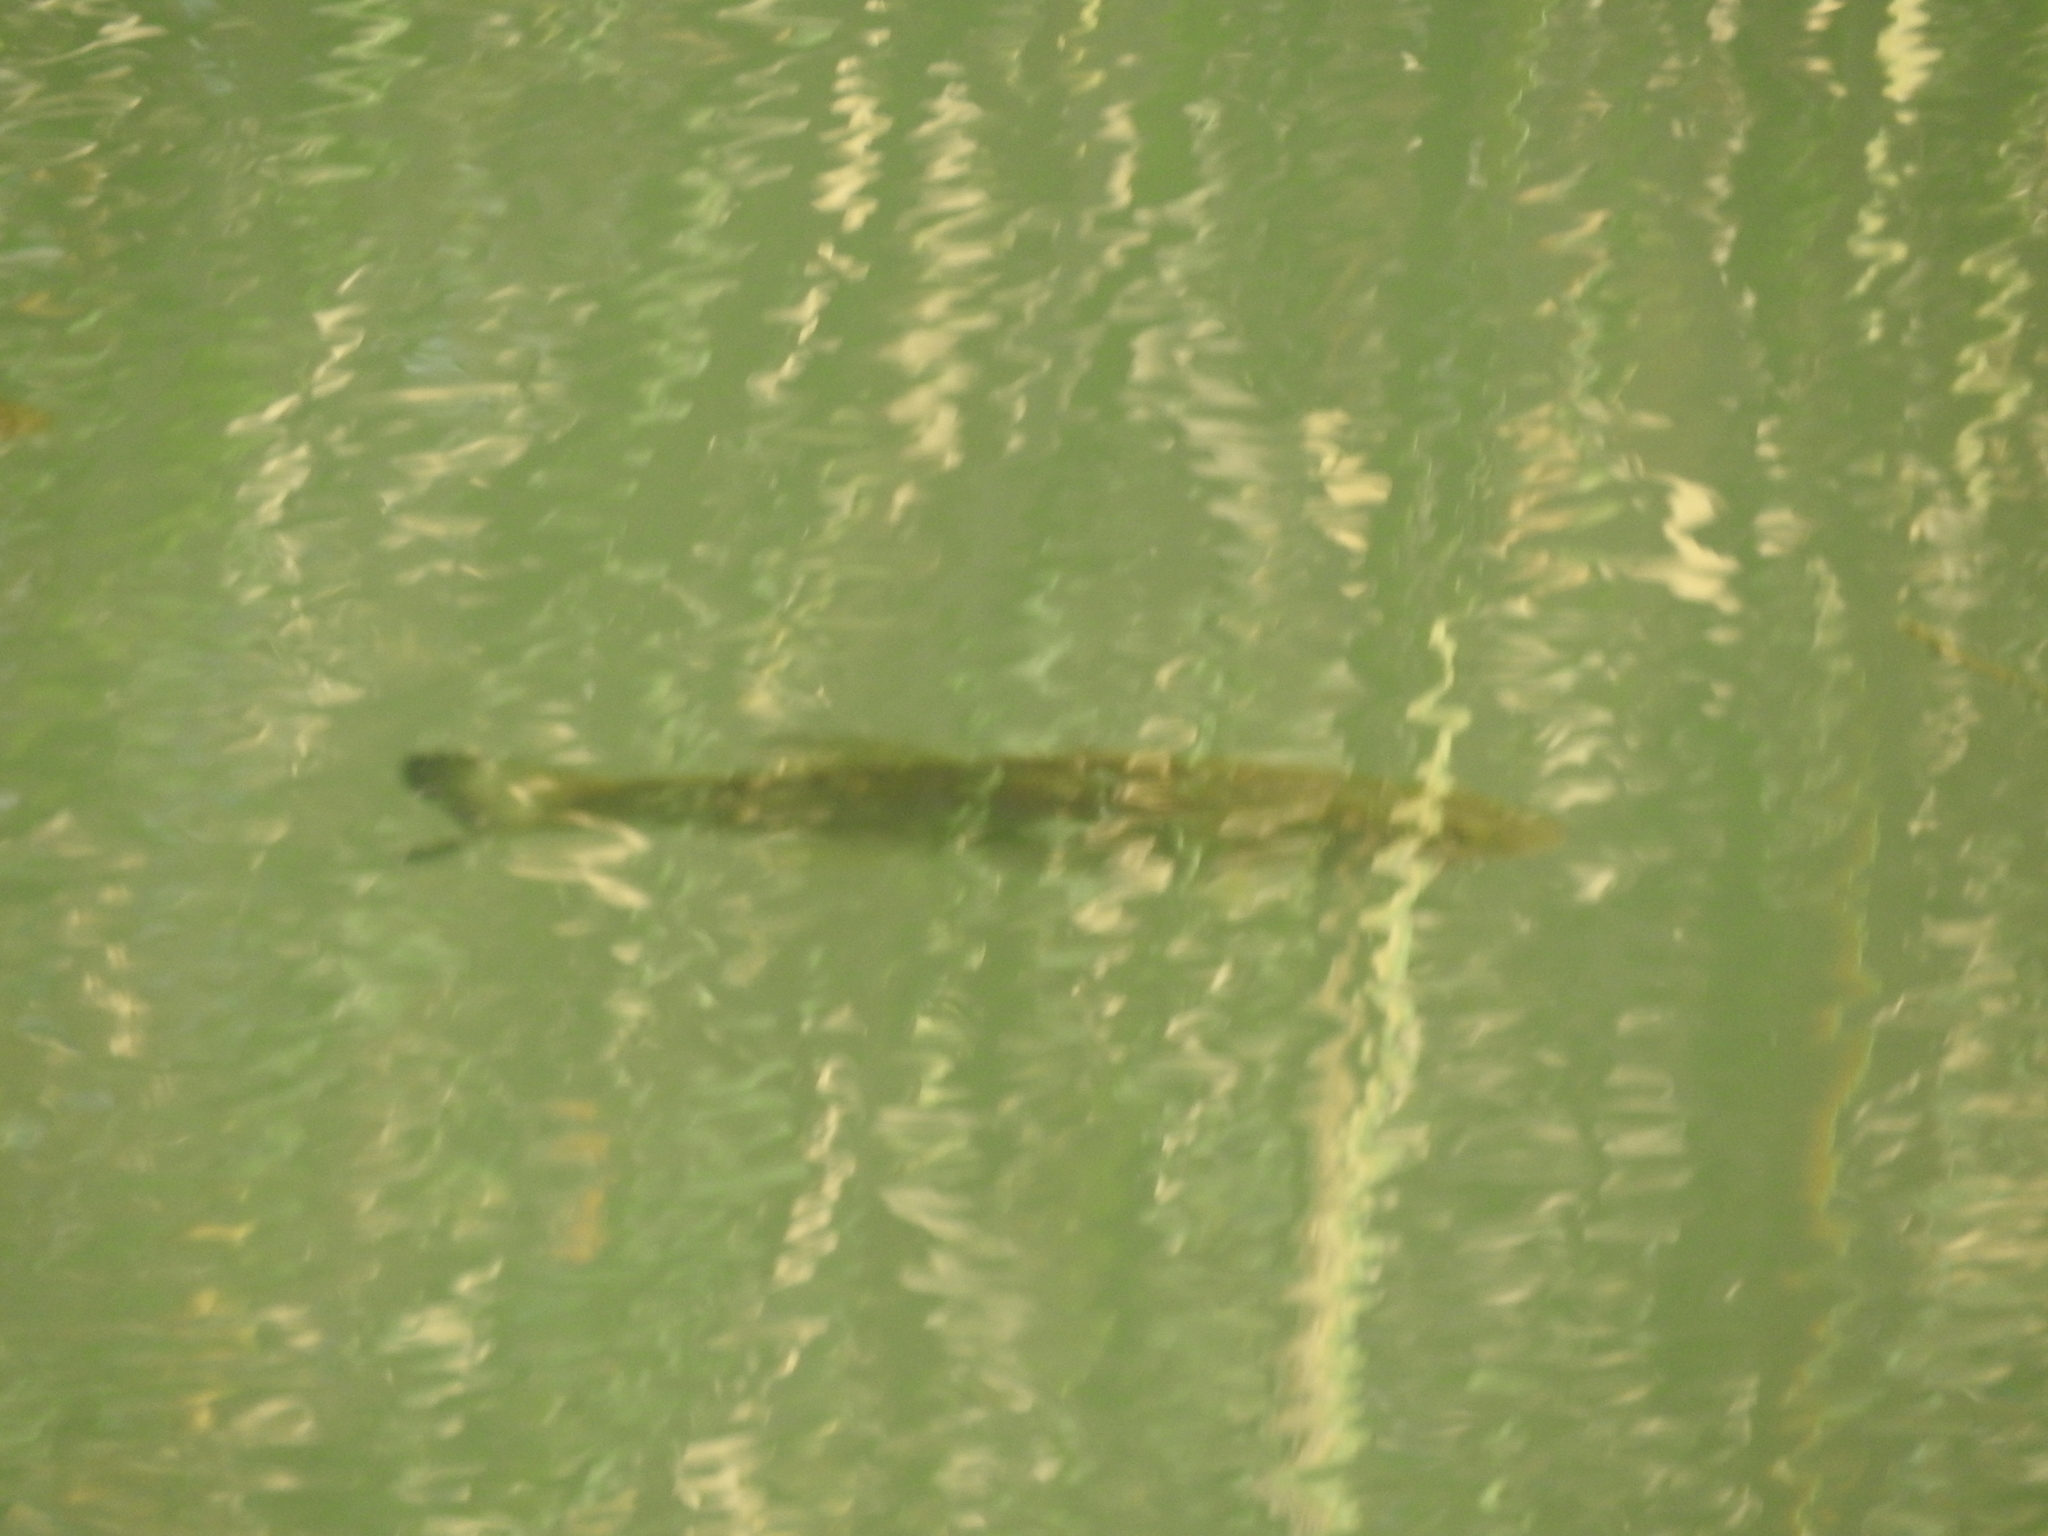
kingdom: Animalia
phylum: Chordata
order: Perciformes
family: Centrarchidae
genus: Micropterus
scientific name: Micropterus
